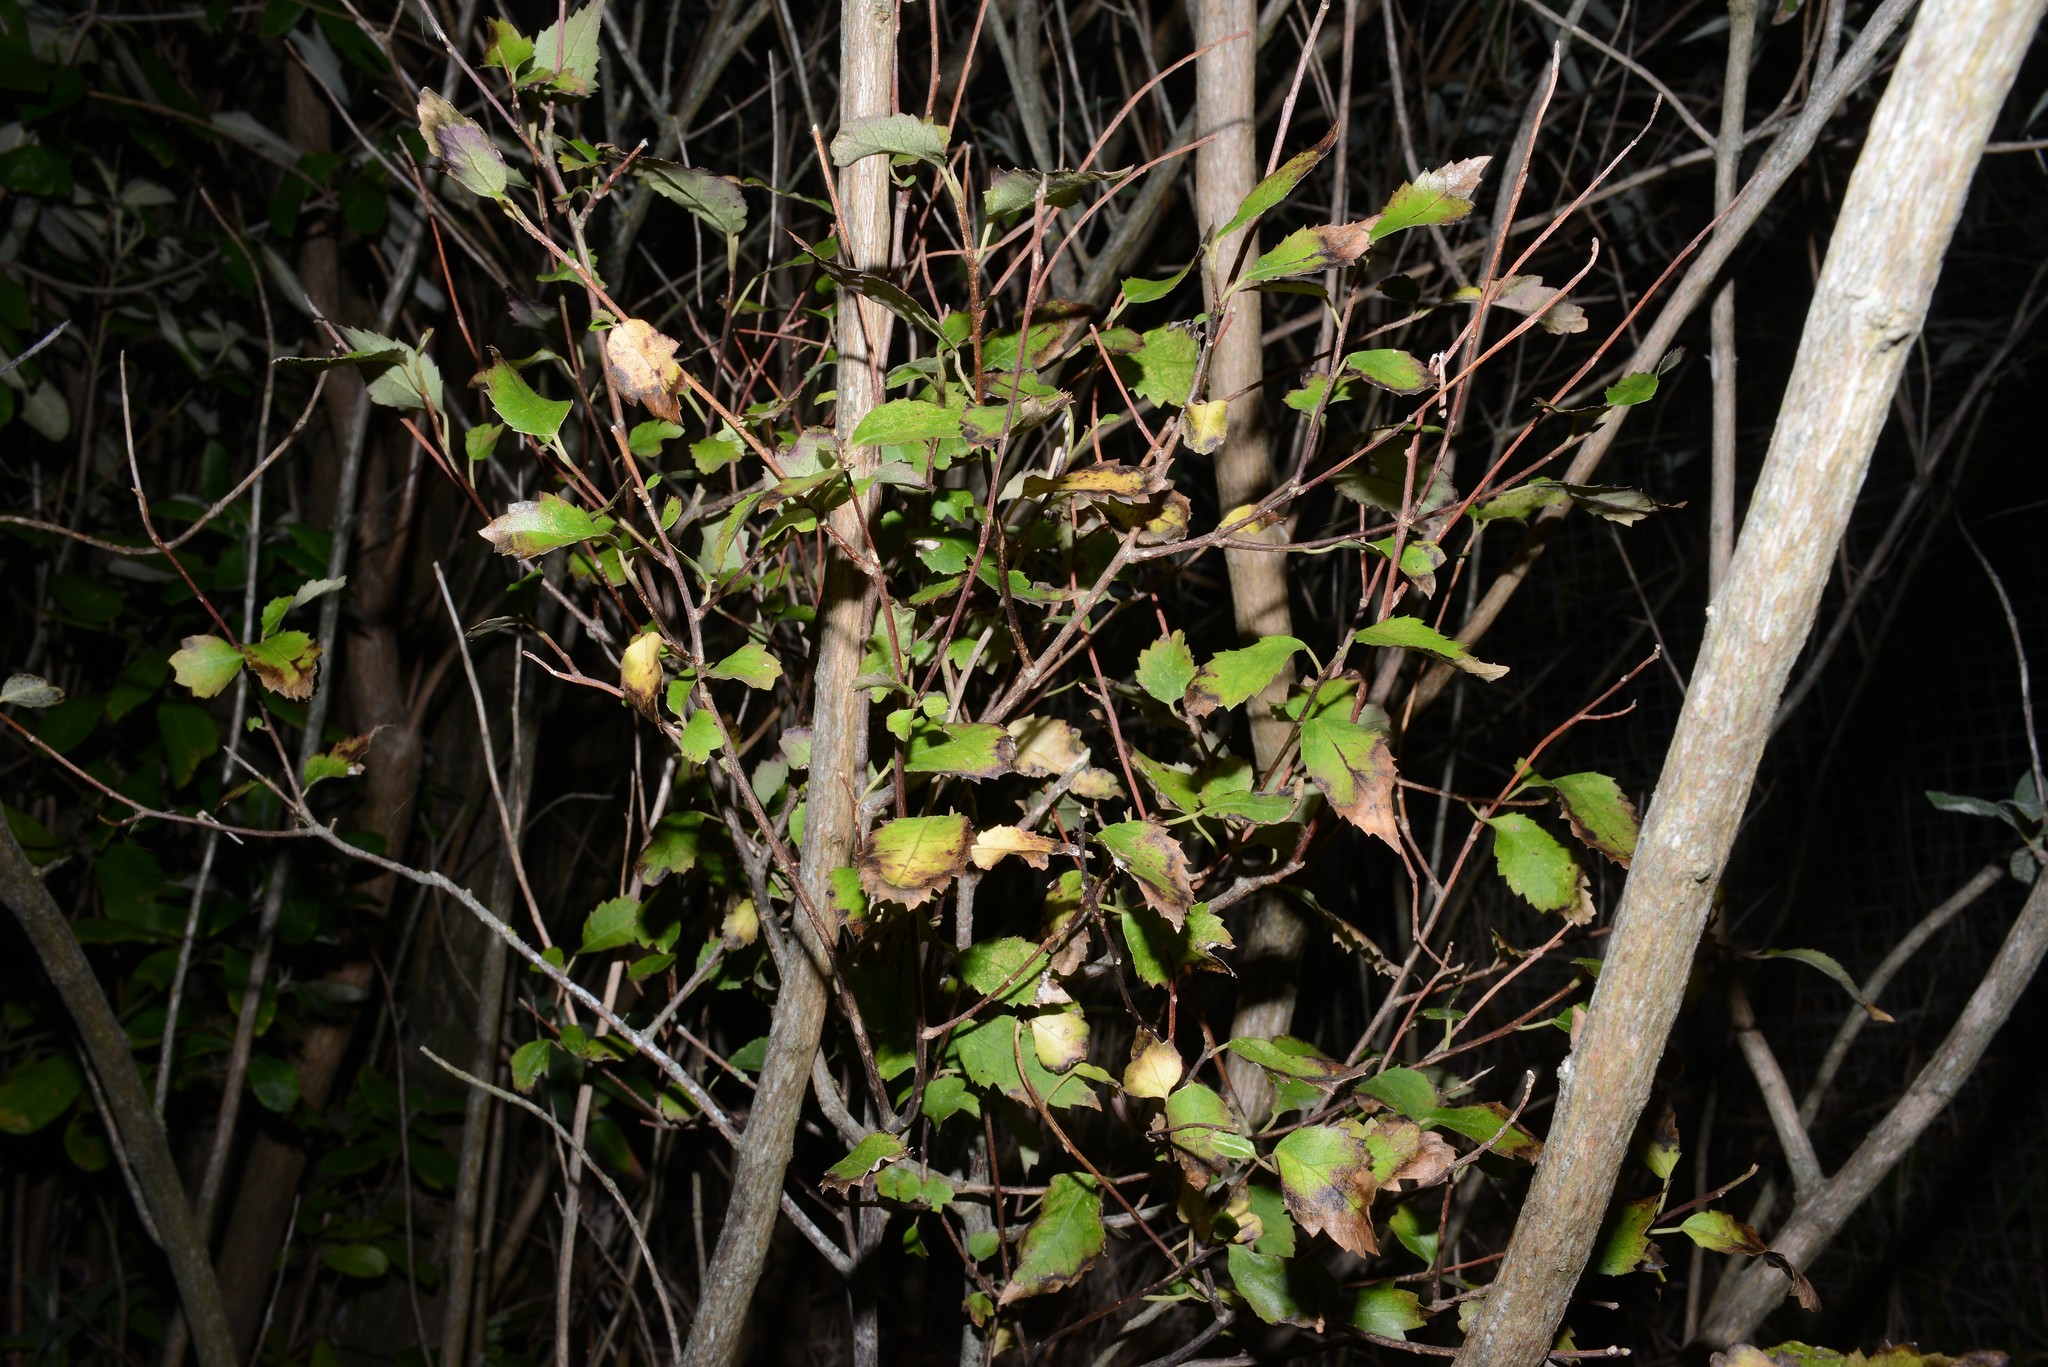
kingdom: Plantae
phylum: Tracheophyta
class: Magnoliopsida
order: Malvales
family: Malvaceae
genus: Hoheria
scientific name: Hoheria populnea
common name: Lacebark
